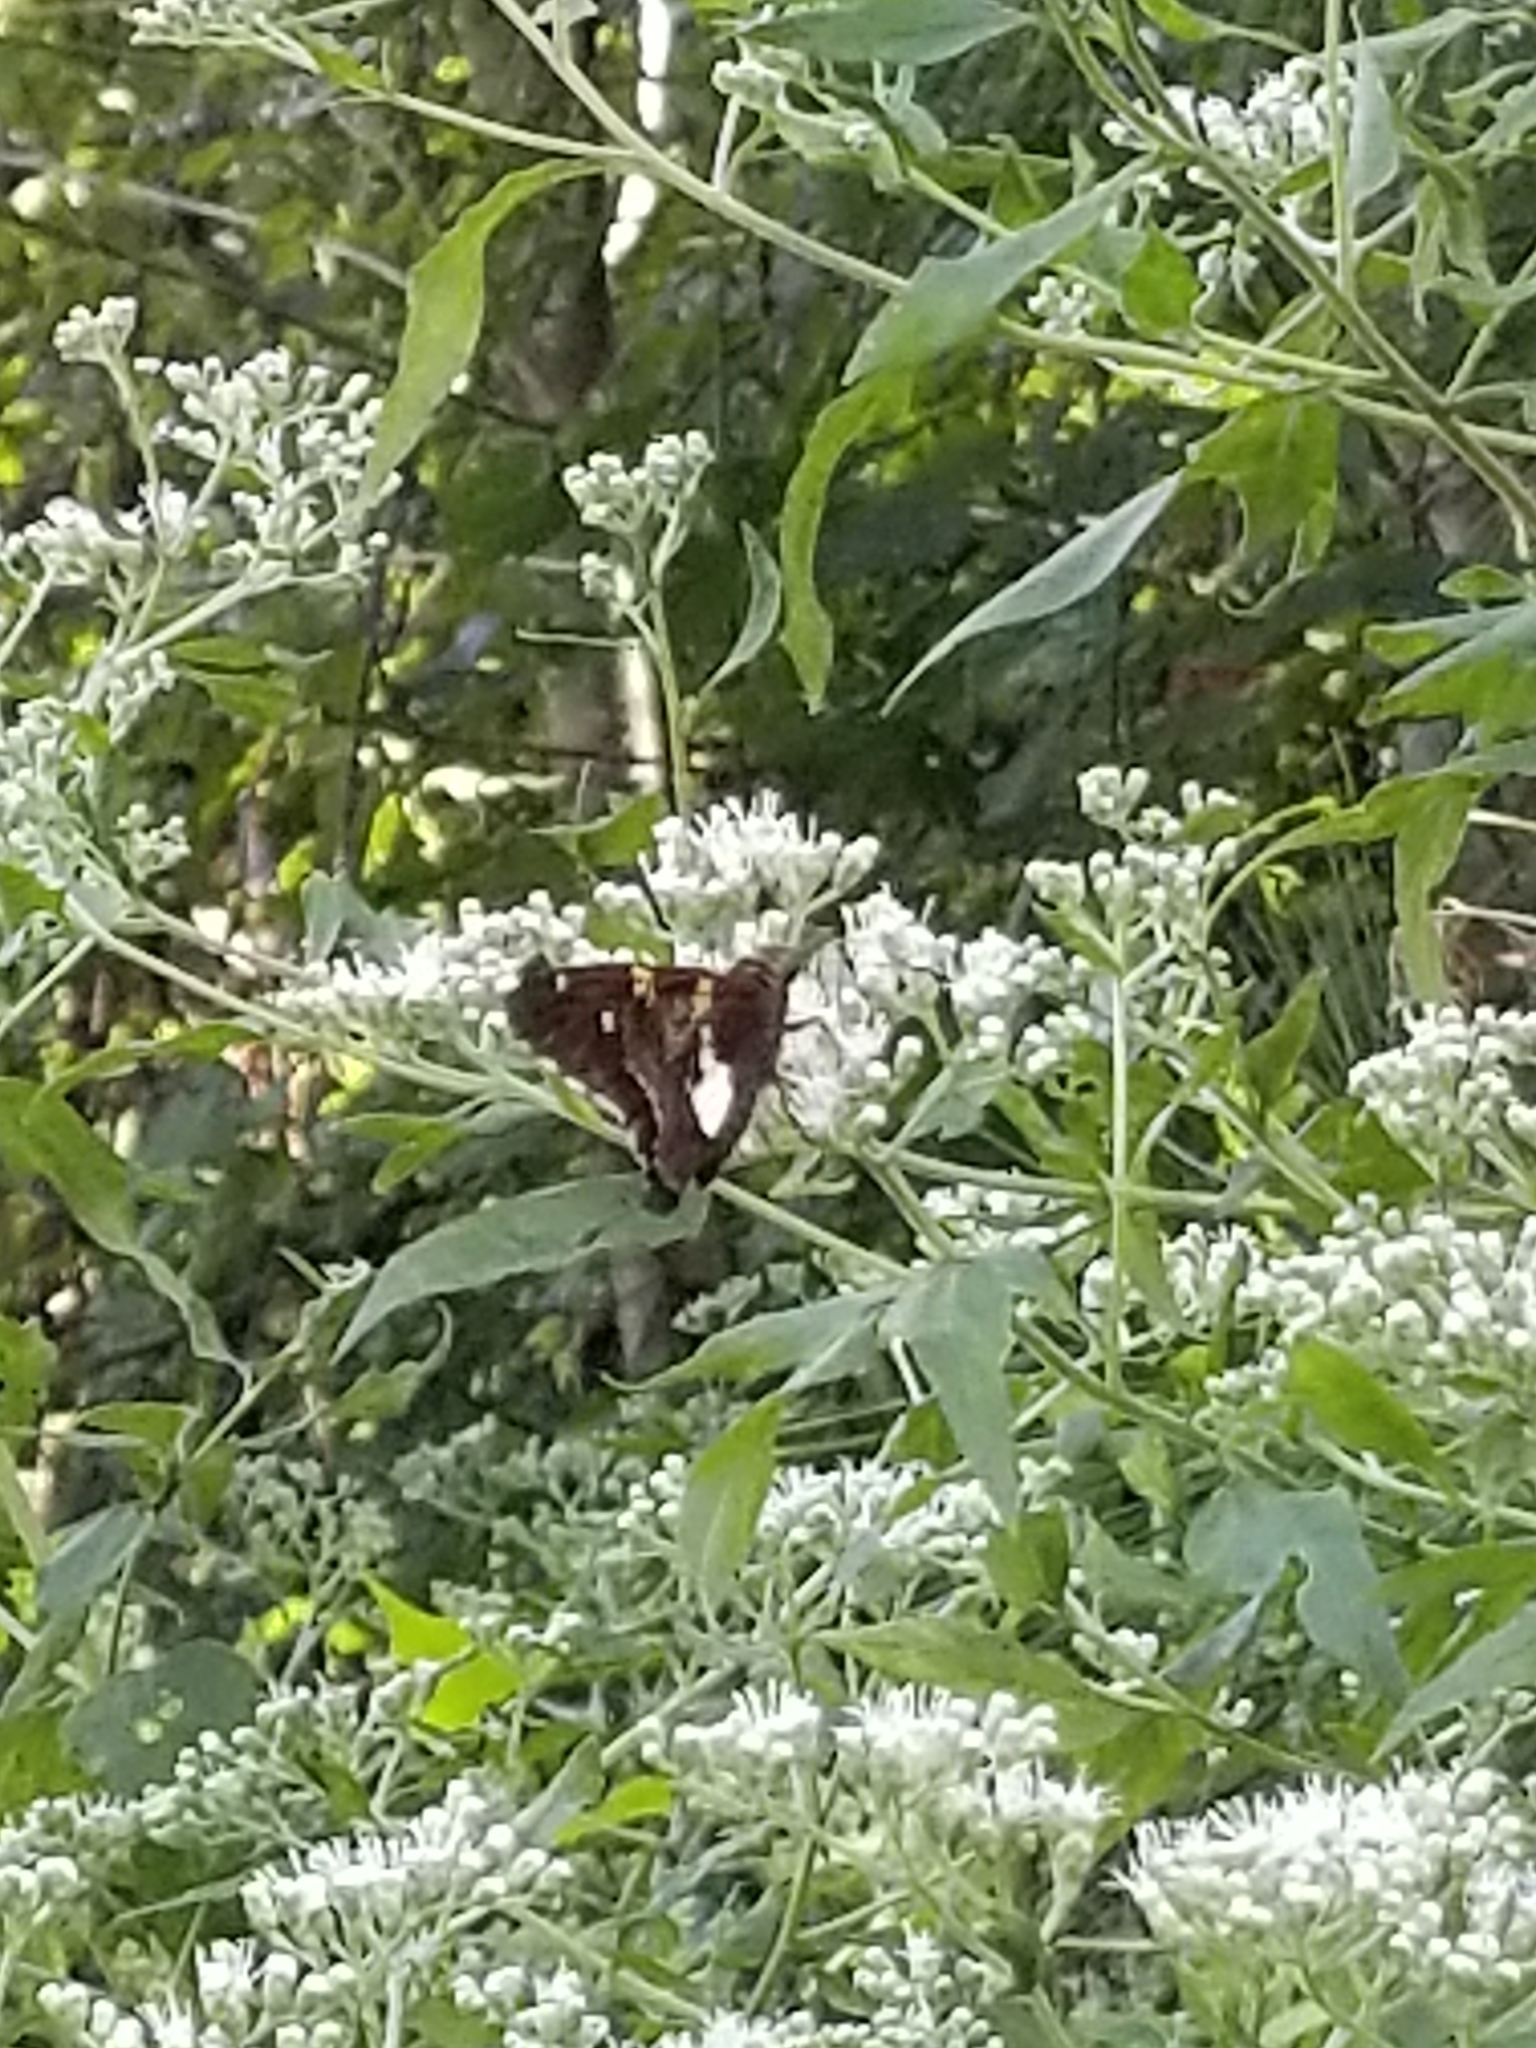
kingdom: Animalia
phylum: Arthropoda
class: Insecta
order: Lepidoptera
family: Hesperiidae
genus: Epargyreus
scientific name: Epargyreus clarus
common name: Silver-spotted skipper
